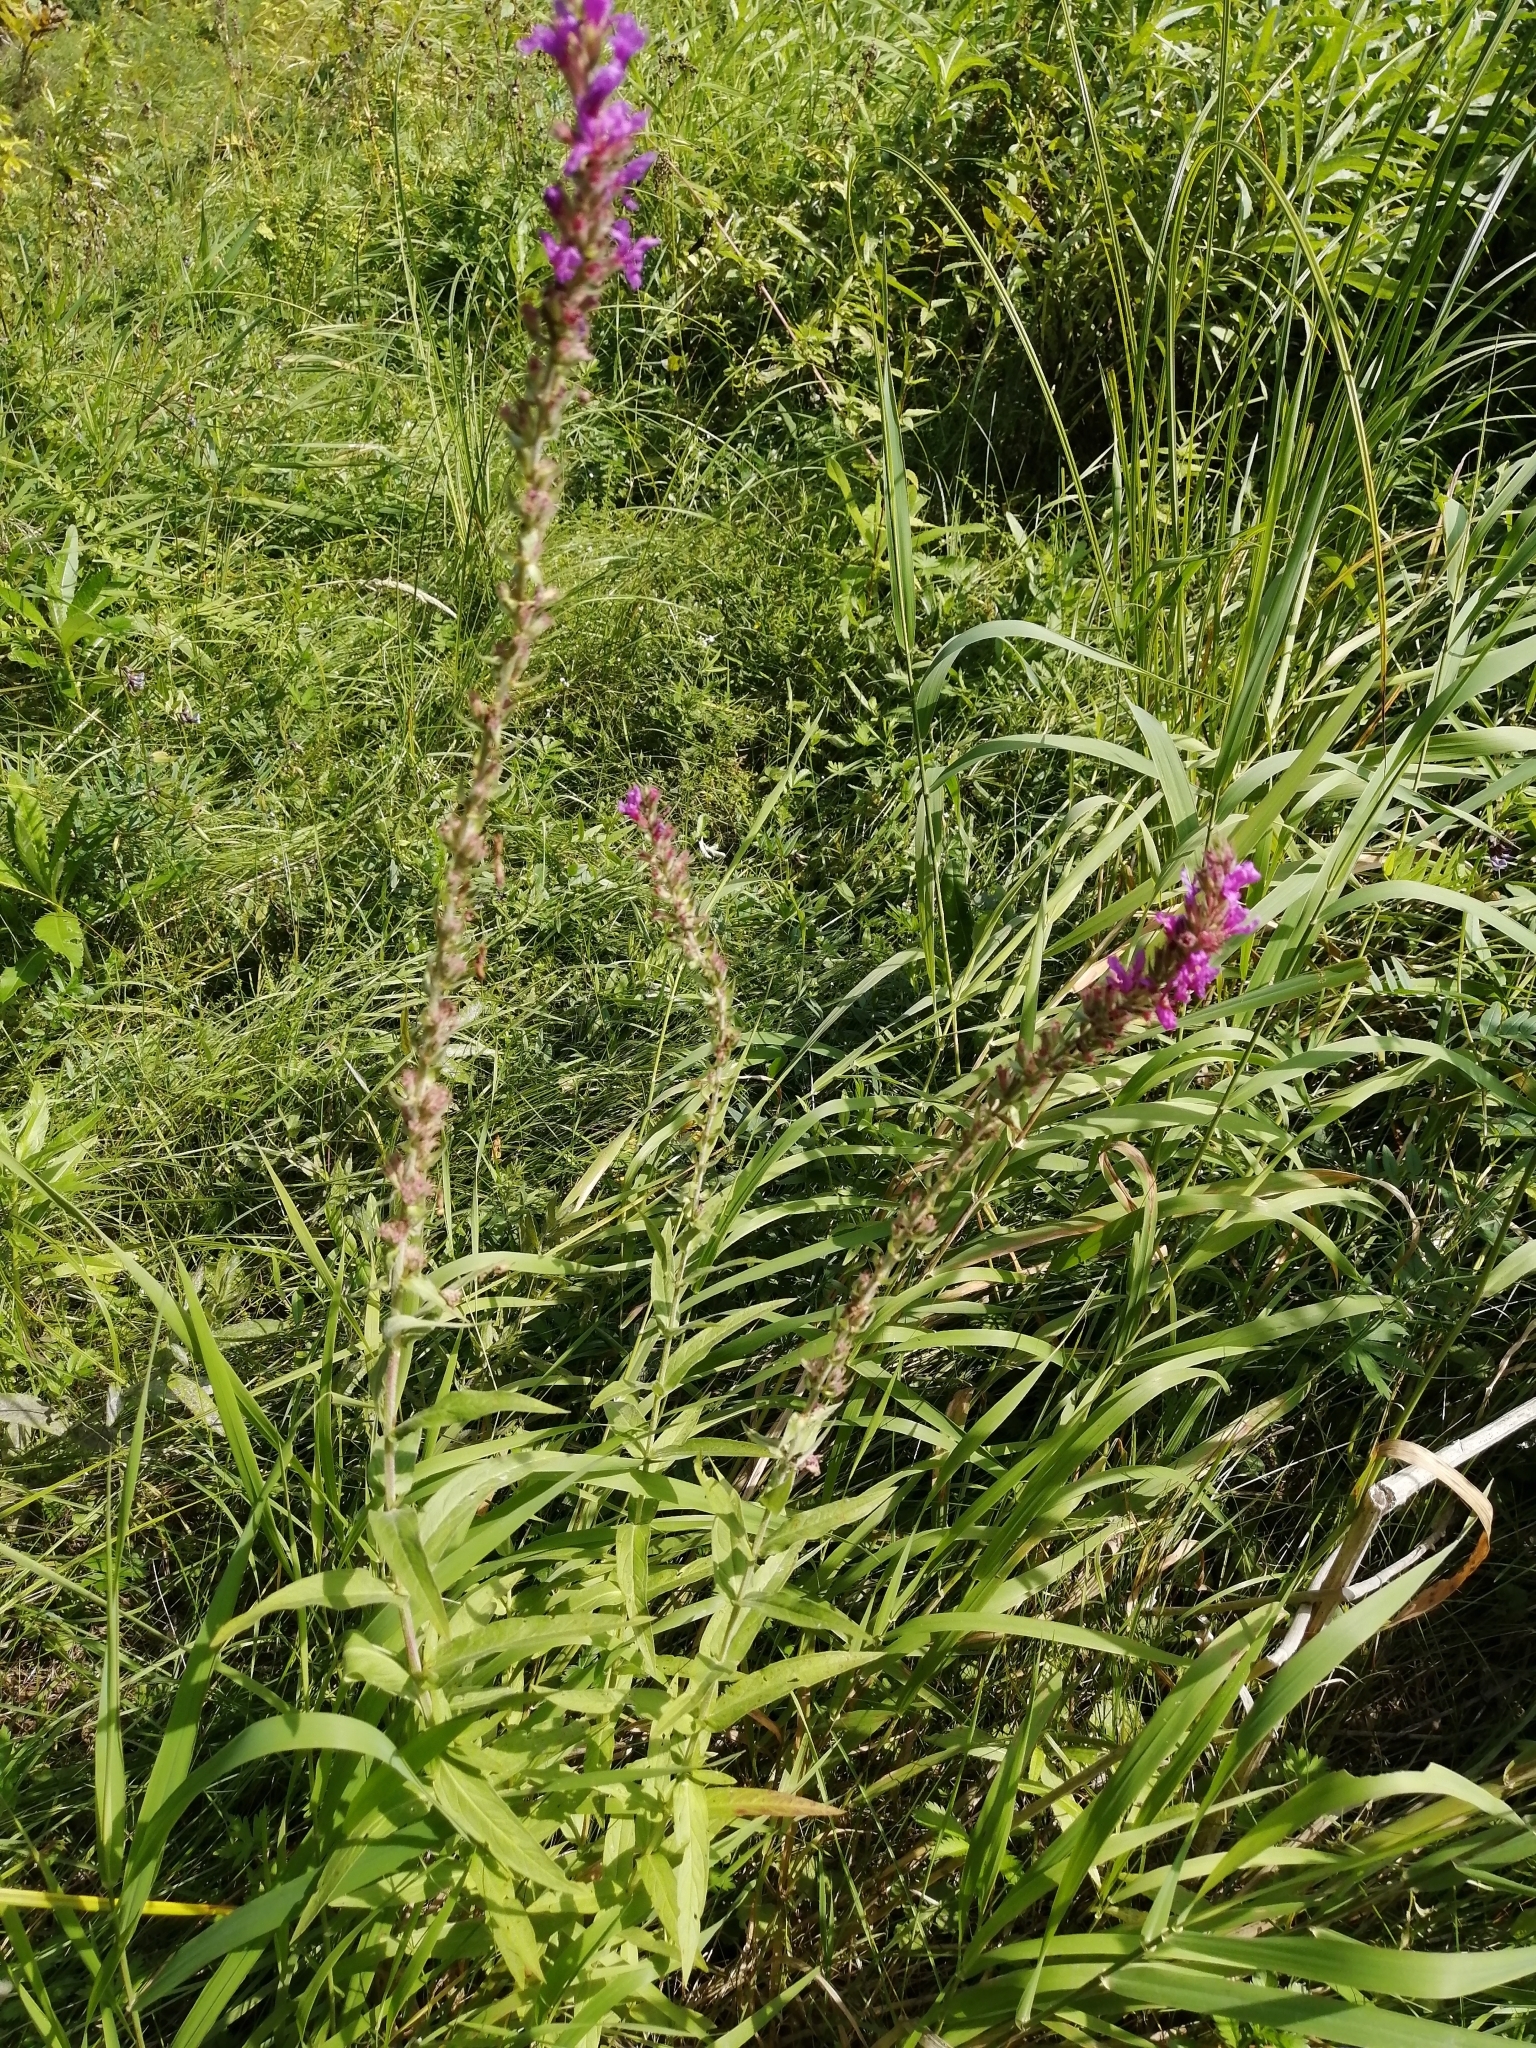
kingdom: Plantae
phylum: Tracheophyta
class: Magnoliopsida
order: Myrtales
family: Lythraceae
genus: Lythrum
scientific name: Lythrum salicaria
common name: Purple loosestrife
